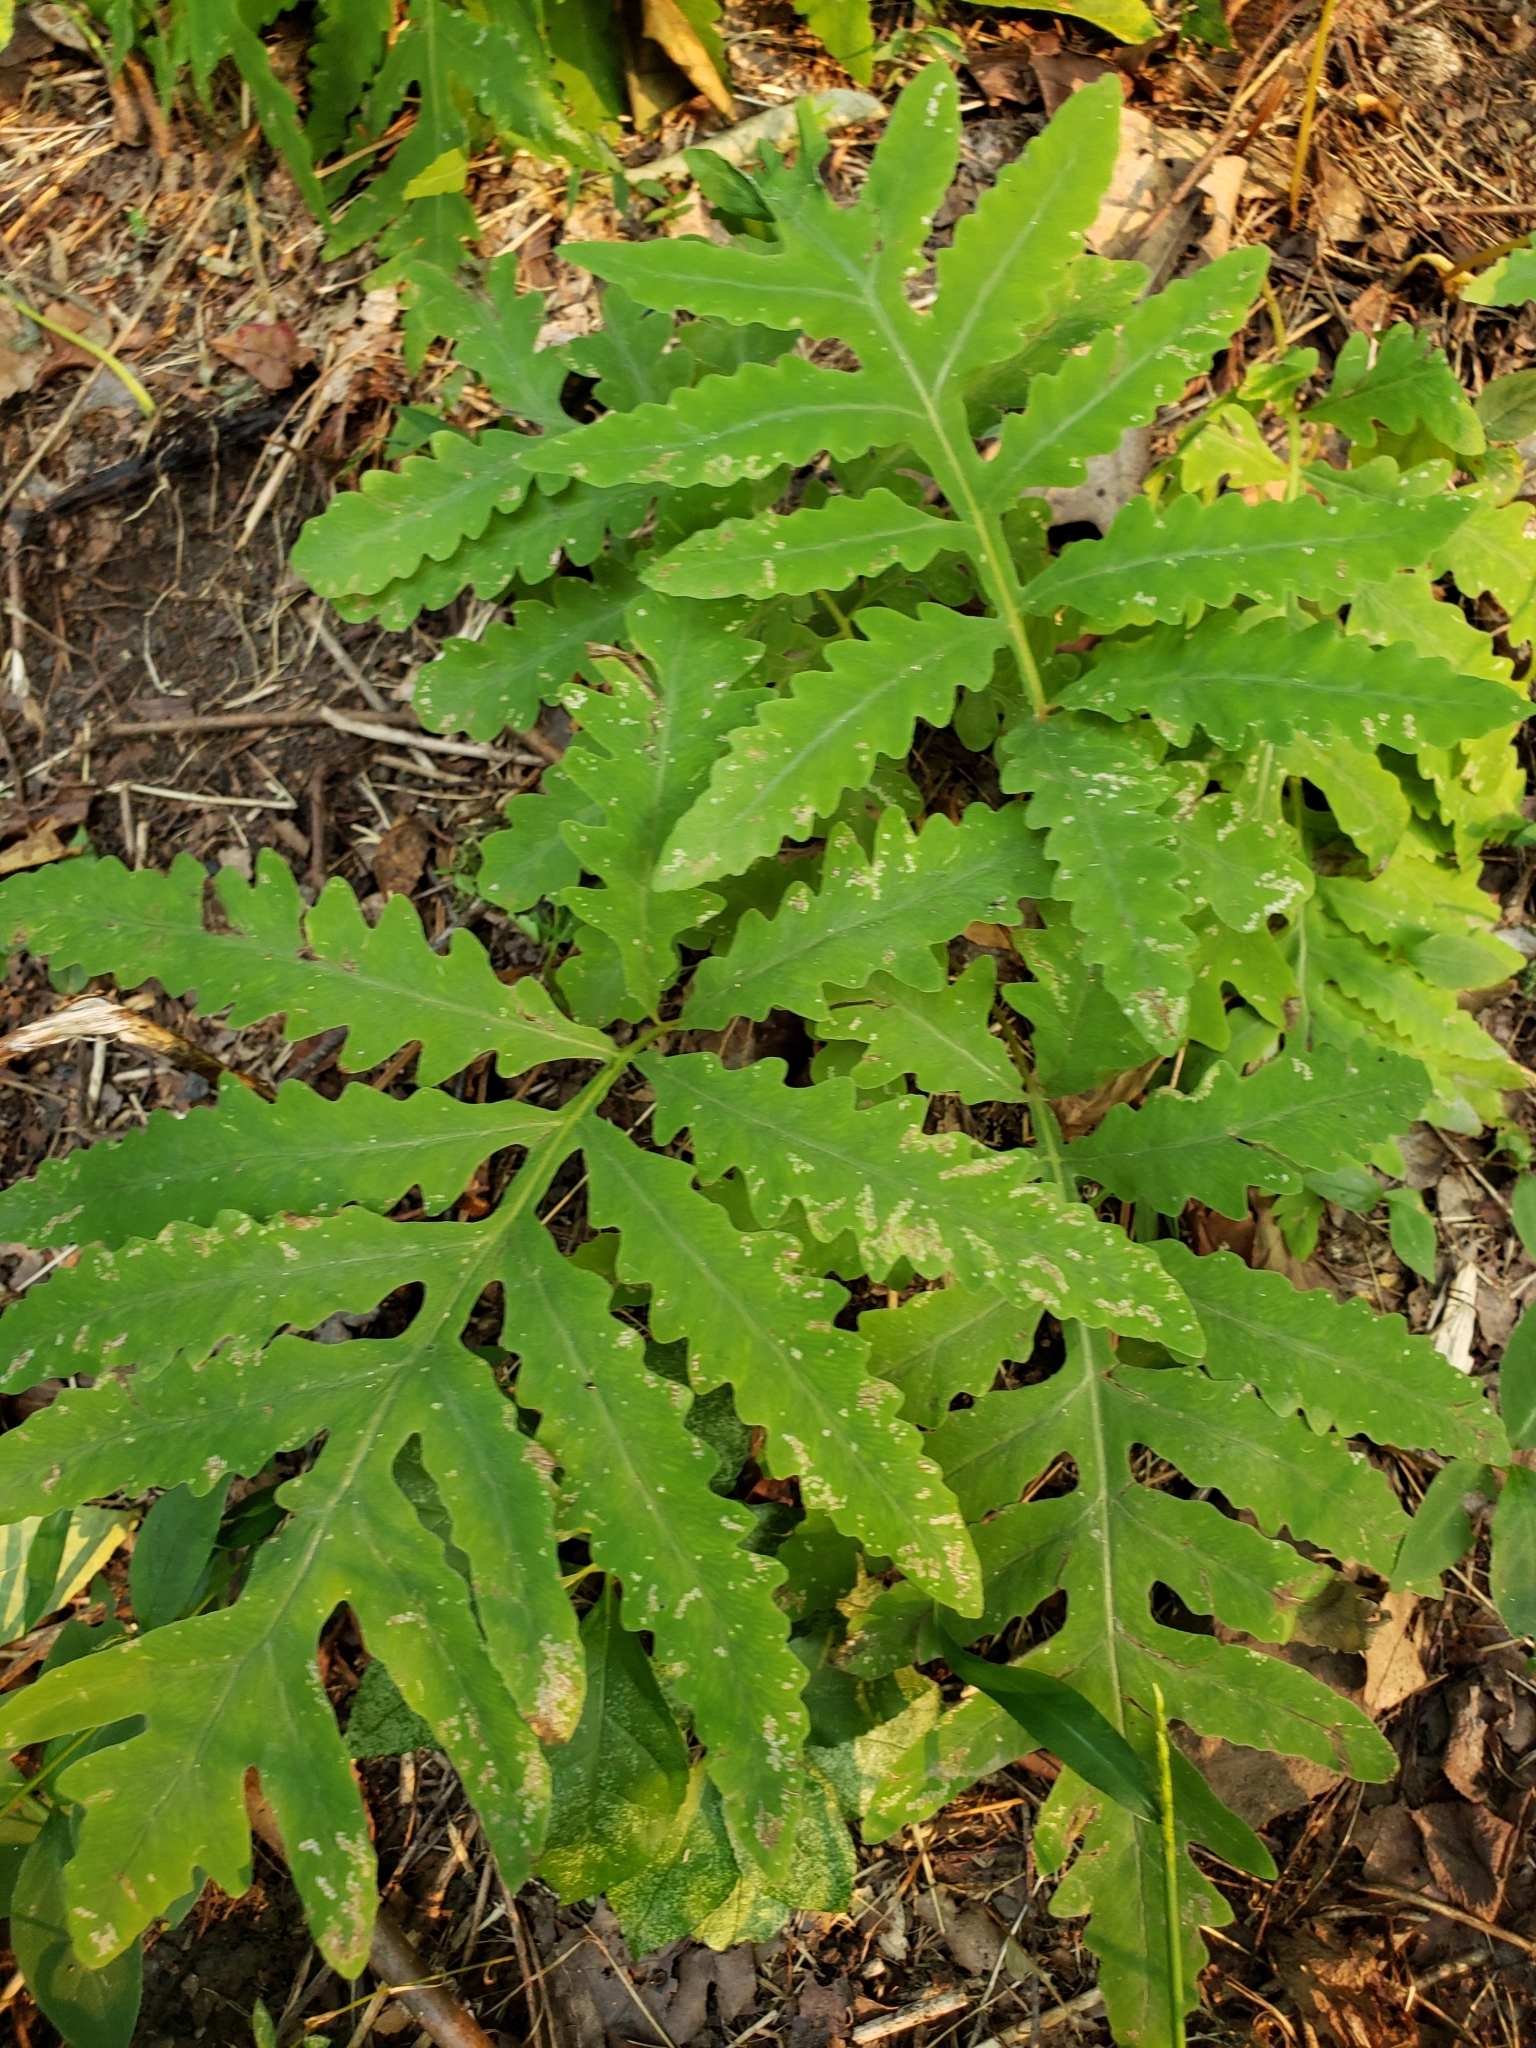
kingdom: Plantae
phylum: Tracheophyta
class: Polypodiopsida
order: Polypodiales
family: Onocleaceae
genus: Onoclea
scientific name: Onoclea sensibilis
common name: Sensitive fern
